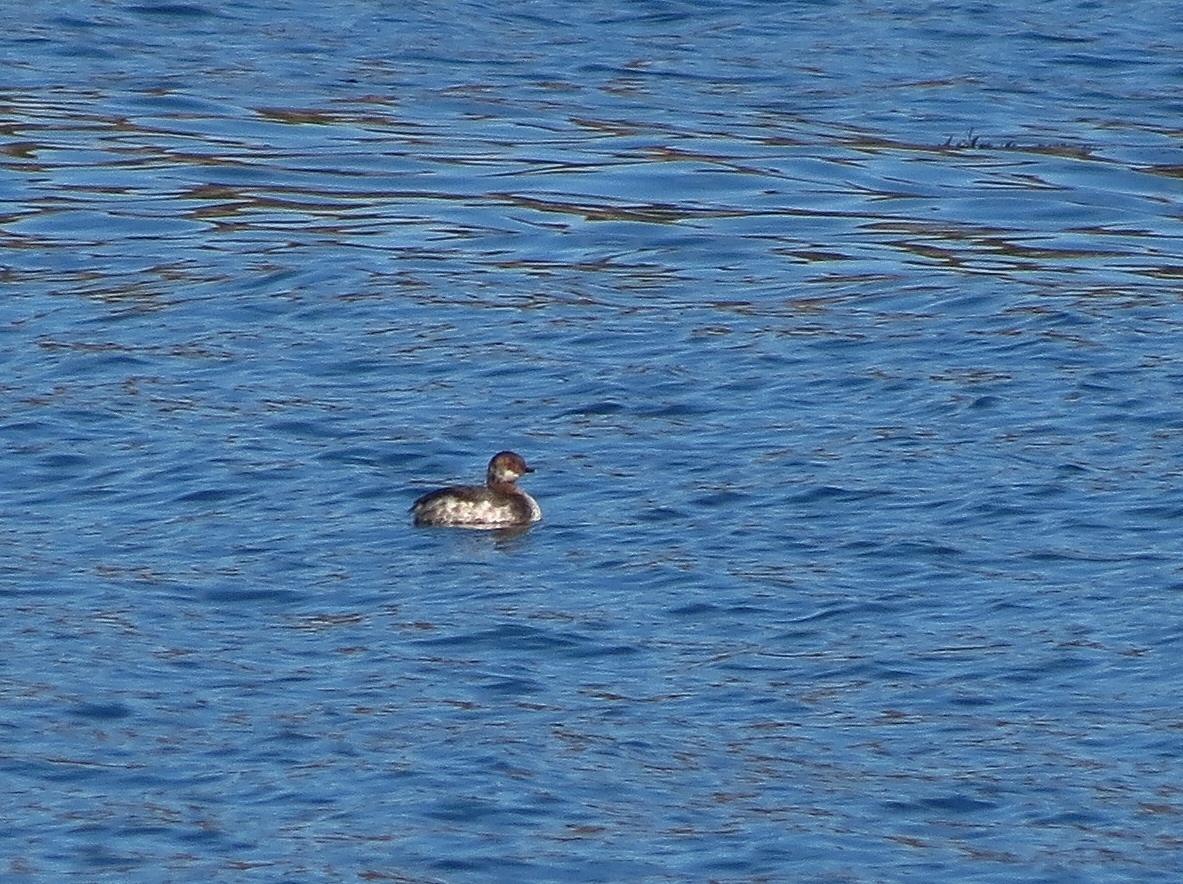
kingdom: Animalia
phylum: Chordata
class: Aves
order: Podicipediformes
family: Podicipedidae
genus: Podiceps
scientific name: Podiceps nigricollis
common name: Black-necked grebe
